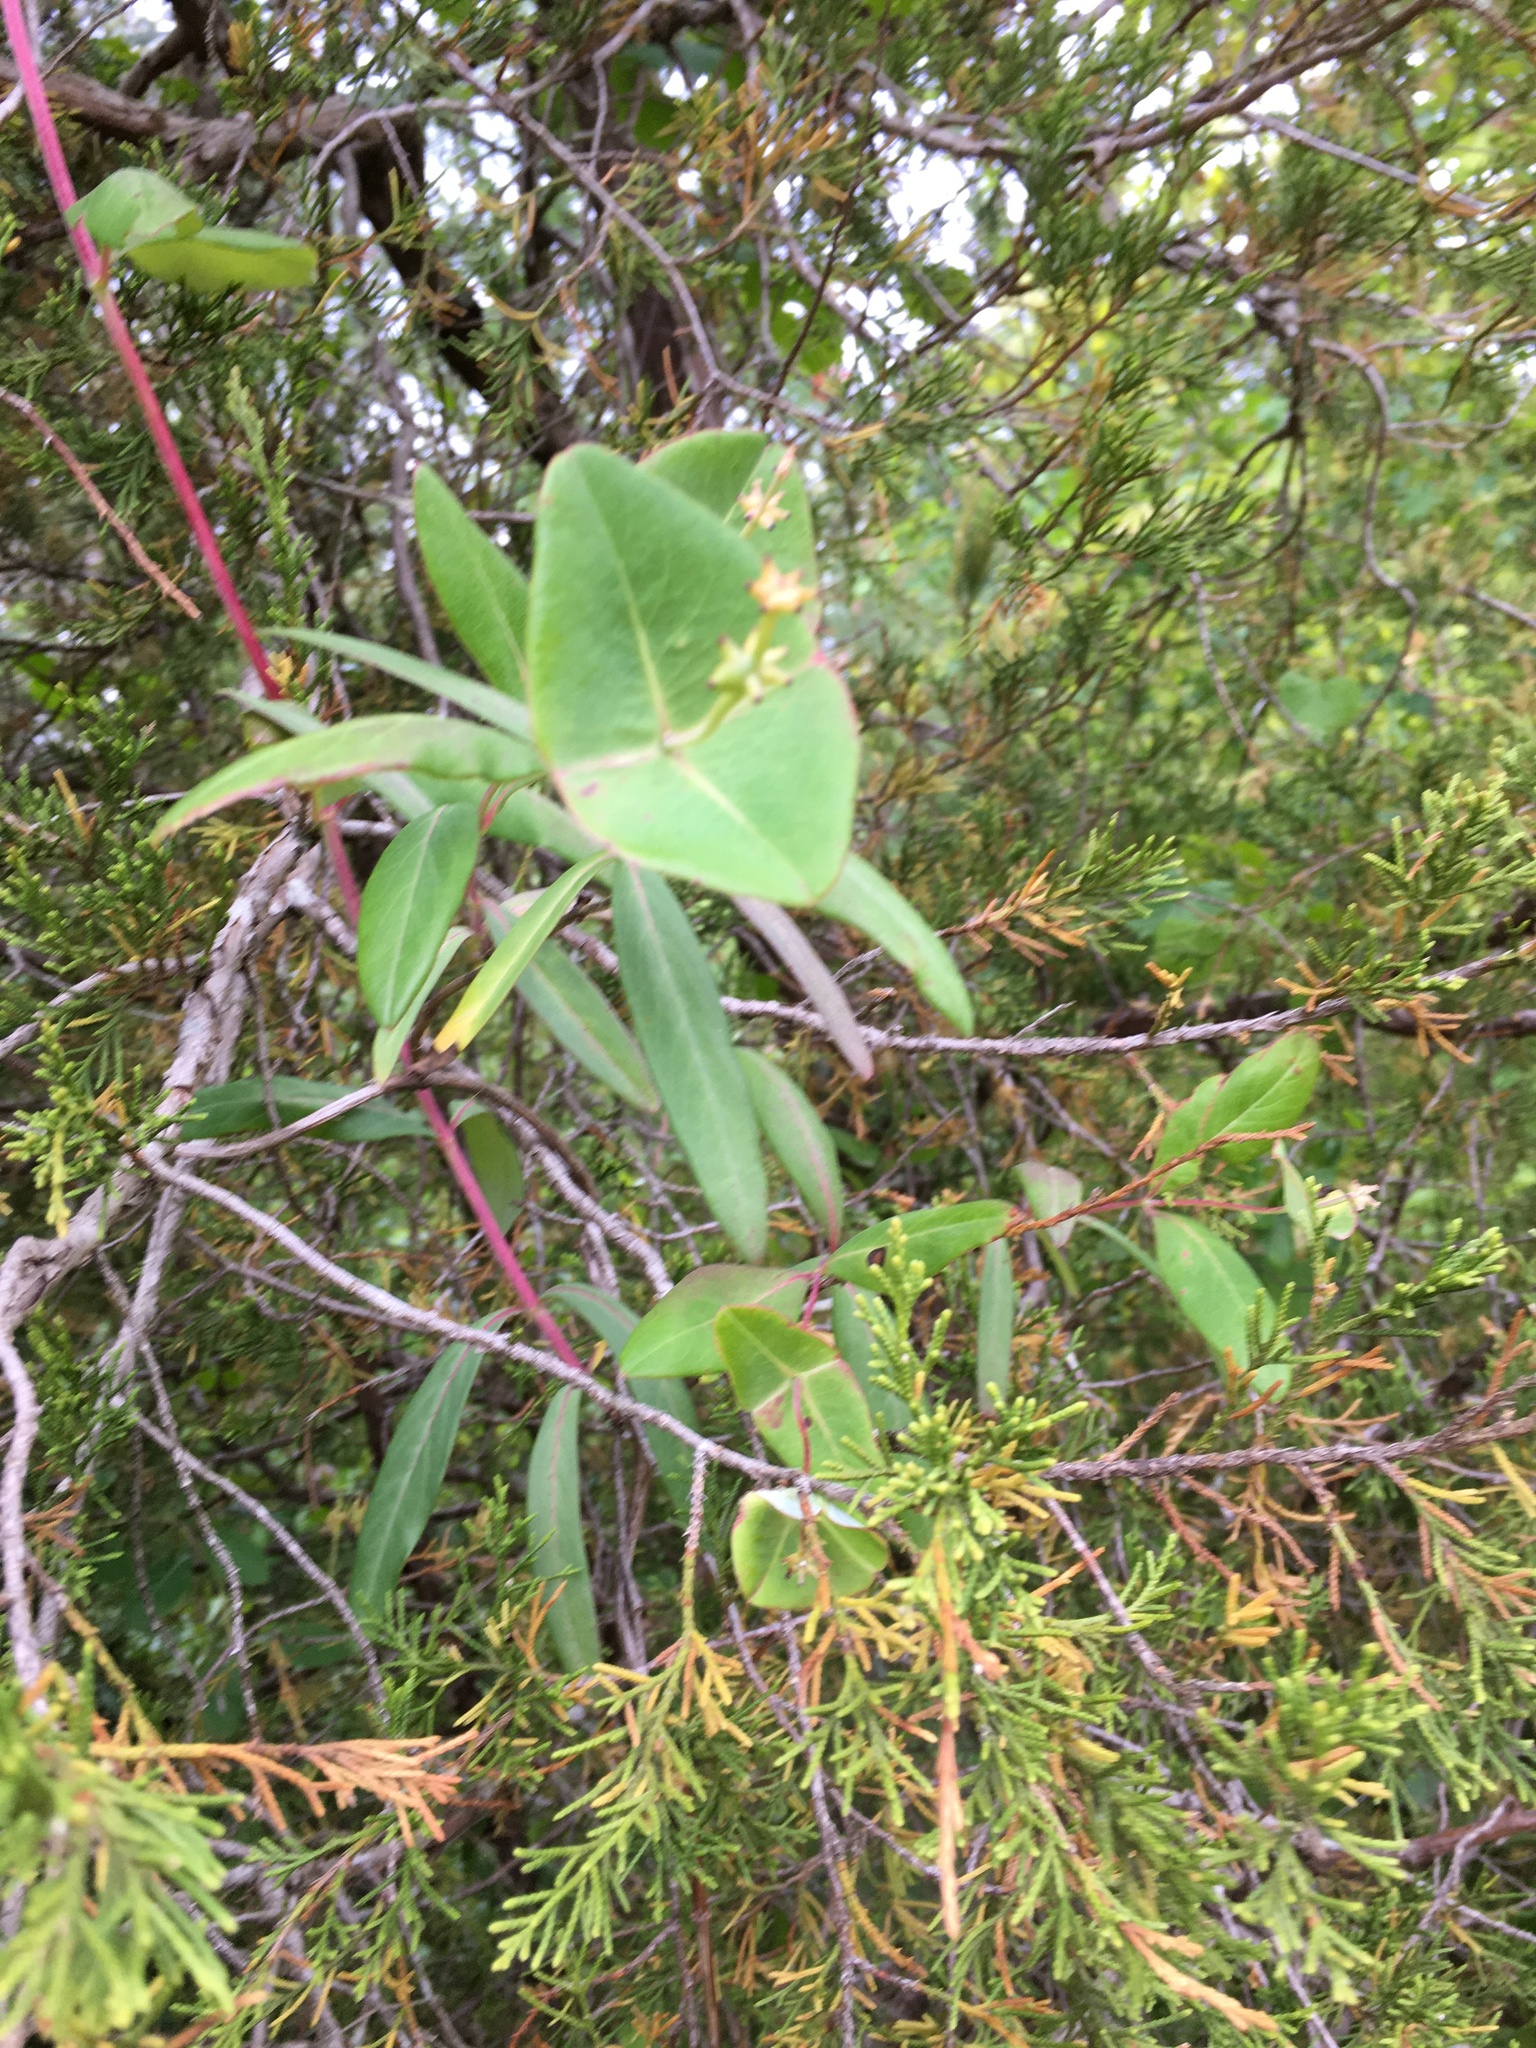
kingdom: Plantae
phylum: Tracheophyta
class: Magnoliopsida
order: Dipsacales
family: Caprifoliaceae
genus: Lonicera
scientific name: Lonicera sempervirens
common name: Coral honeysuckle
